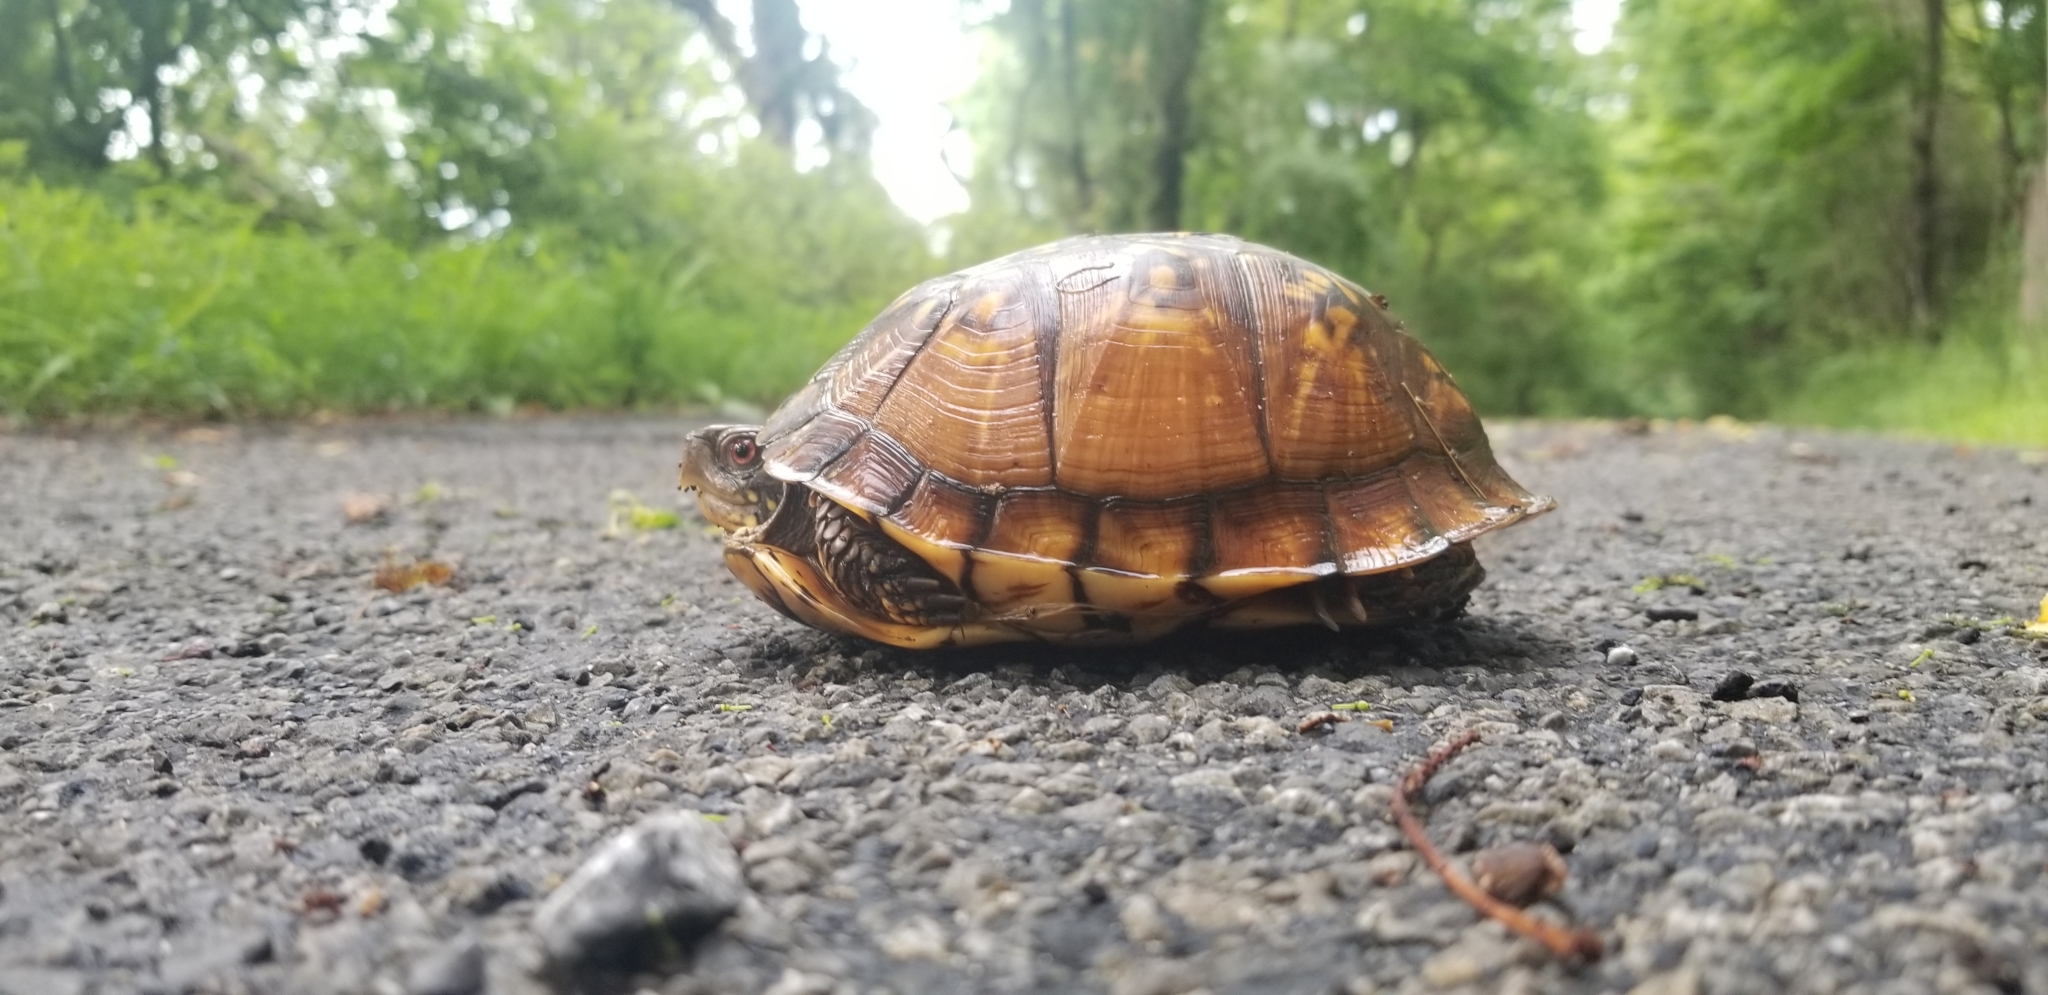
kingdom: Animalia
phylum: Chordata
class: Testudines
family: Emydidae
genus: Terrapene
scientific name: Terrapene carolina
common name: Common box turtle
